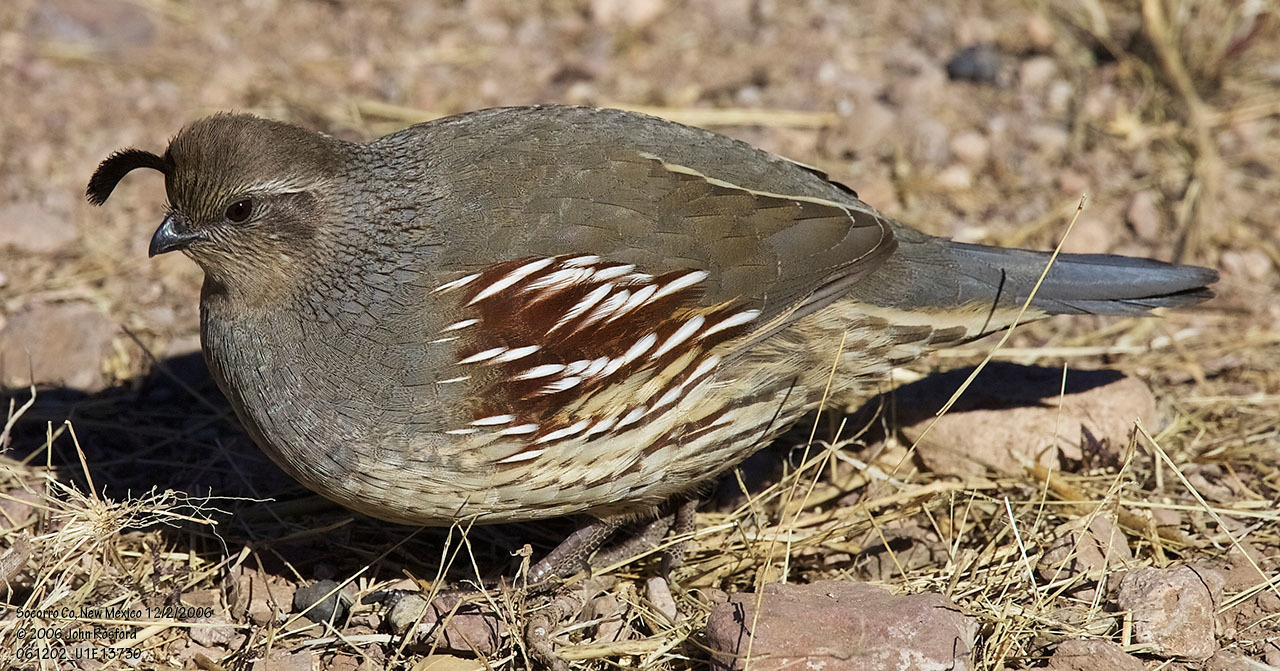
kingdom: Animalia
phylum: Chordata
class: Aves
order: Galliformes
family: Odontophoridae
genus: Callipepla
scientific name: Callipepla gambelii
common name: Gambel's quail
